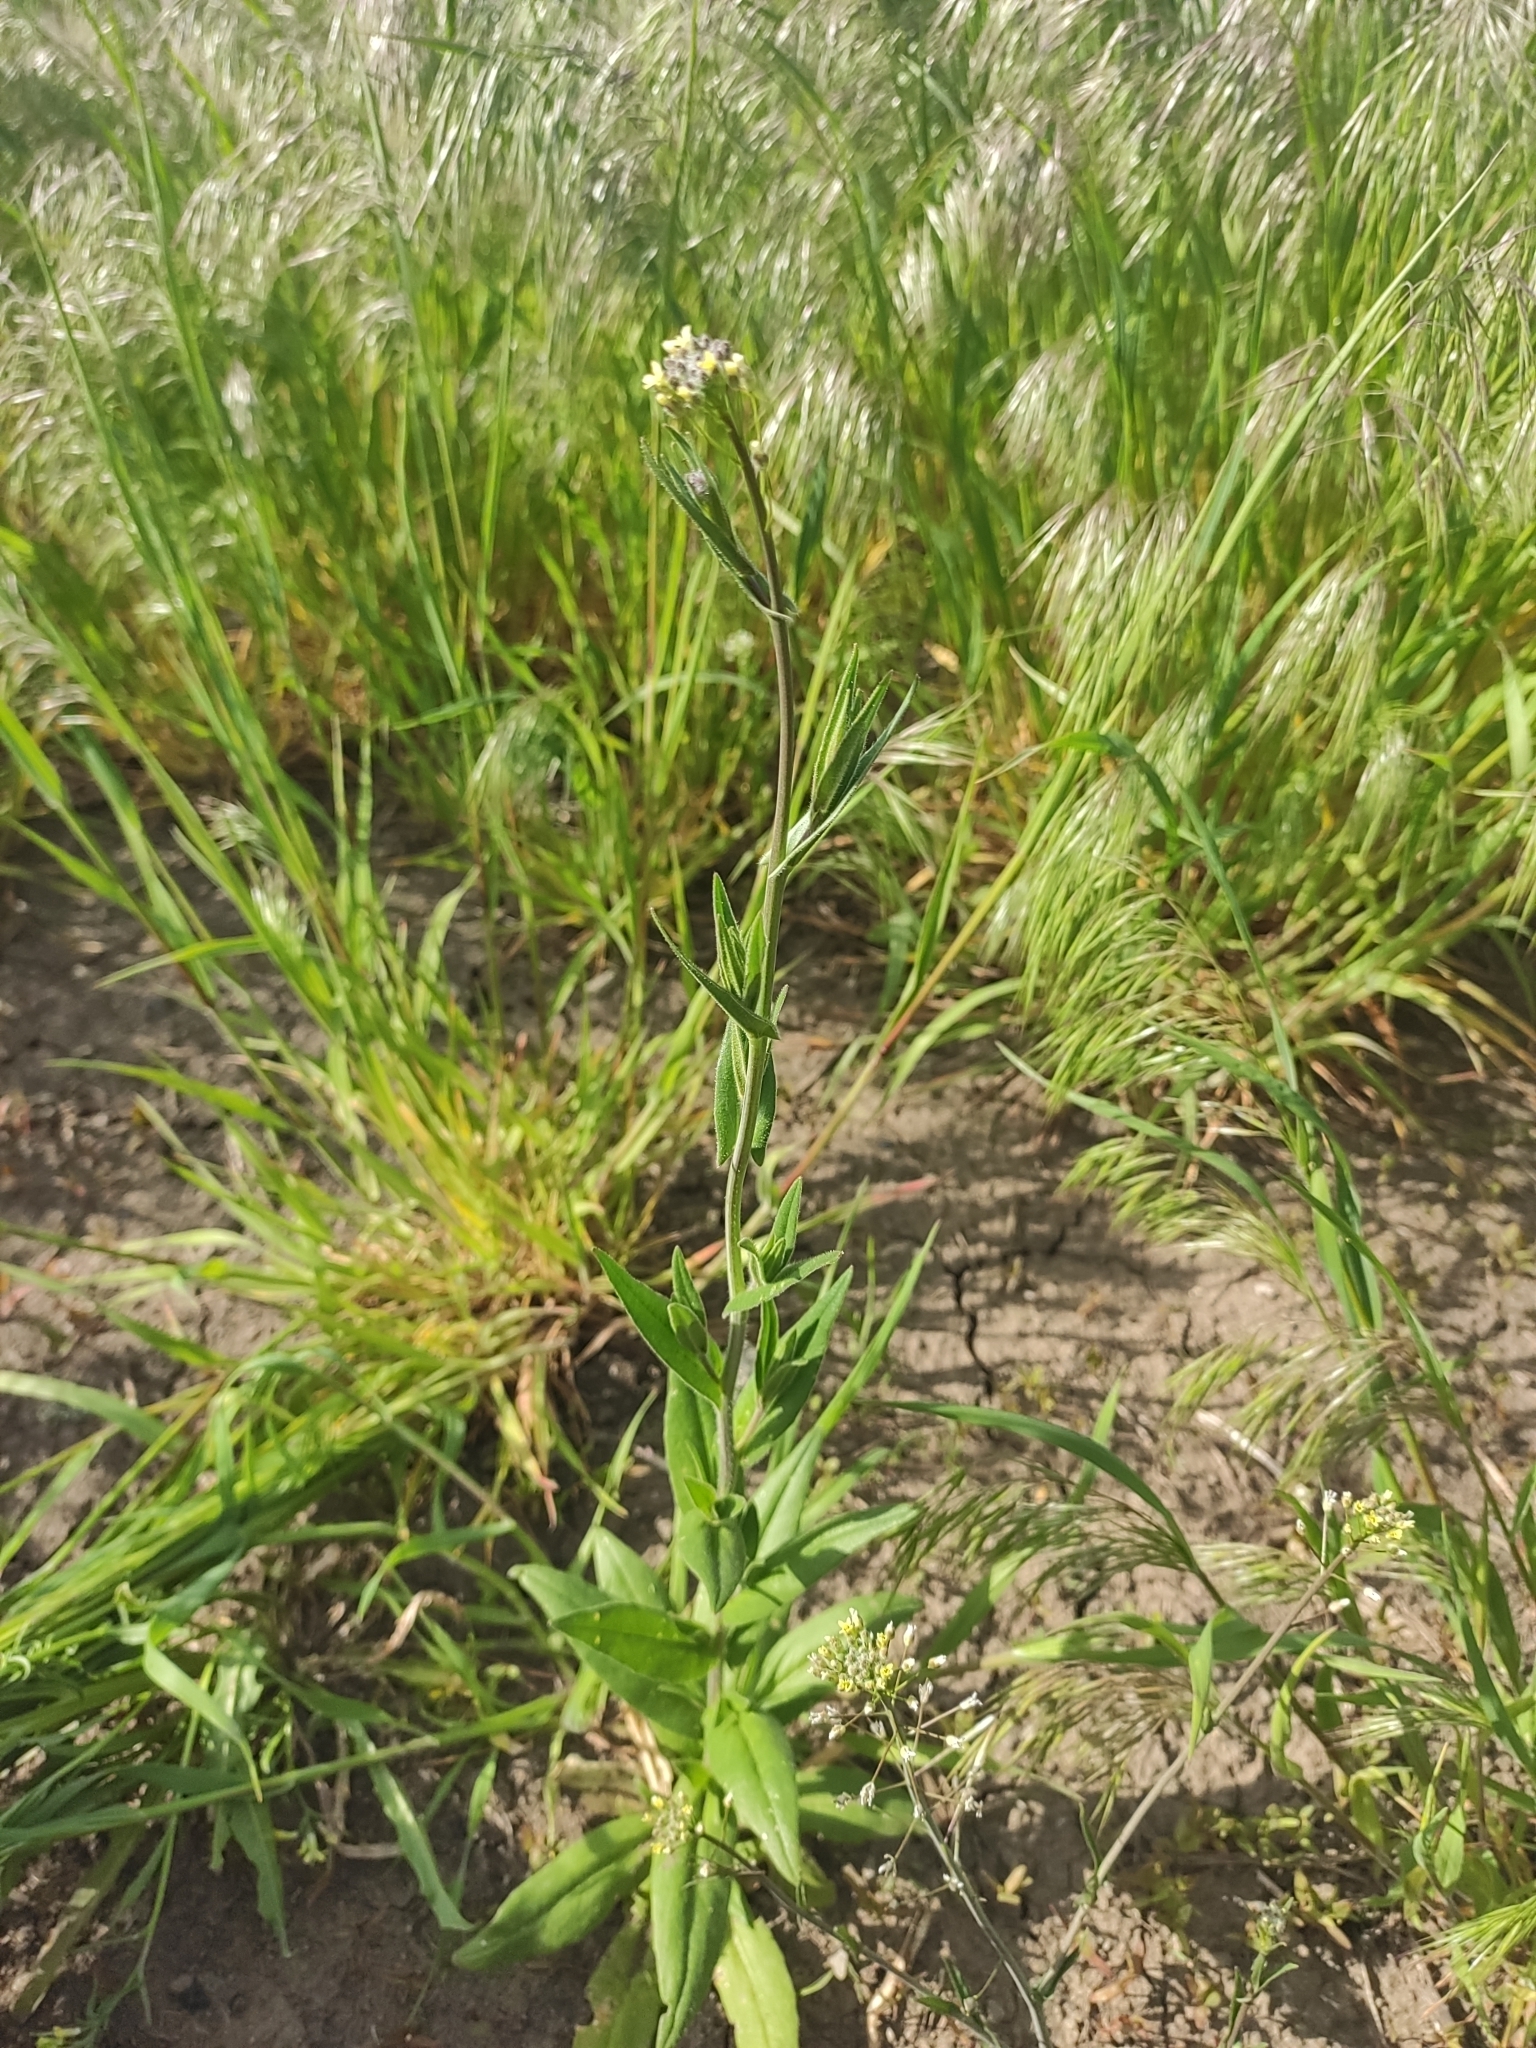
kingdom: Plantae
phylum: Tracheophyta
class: Magnoliopsida
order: Brassicales
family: Brassicaceae
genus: Camelina
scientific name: Camelina microcarpa
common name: Lesser gold-of-pleasure
